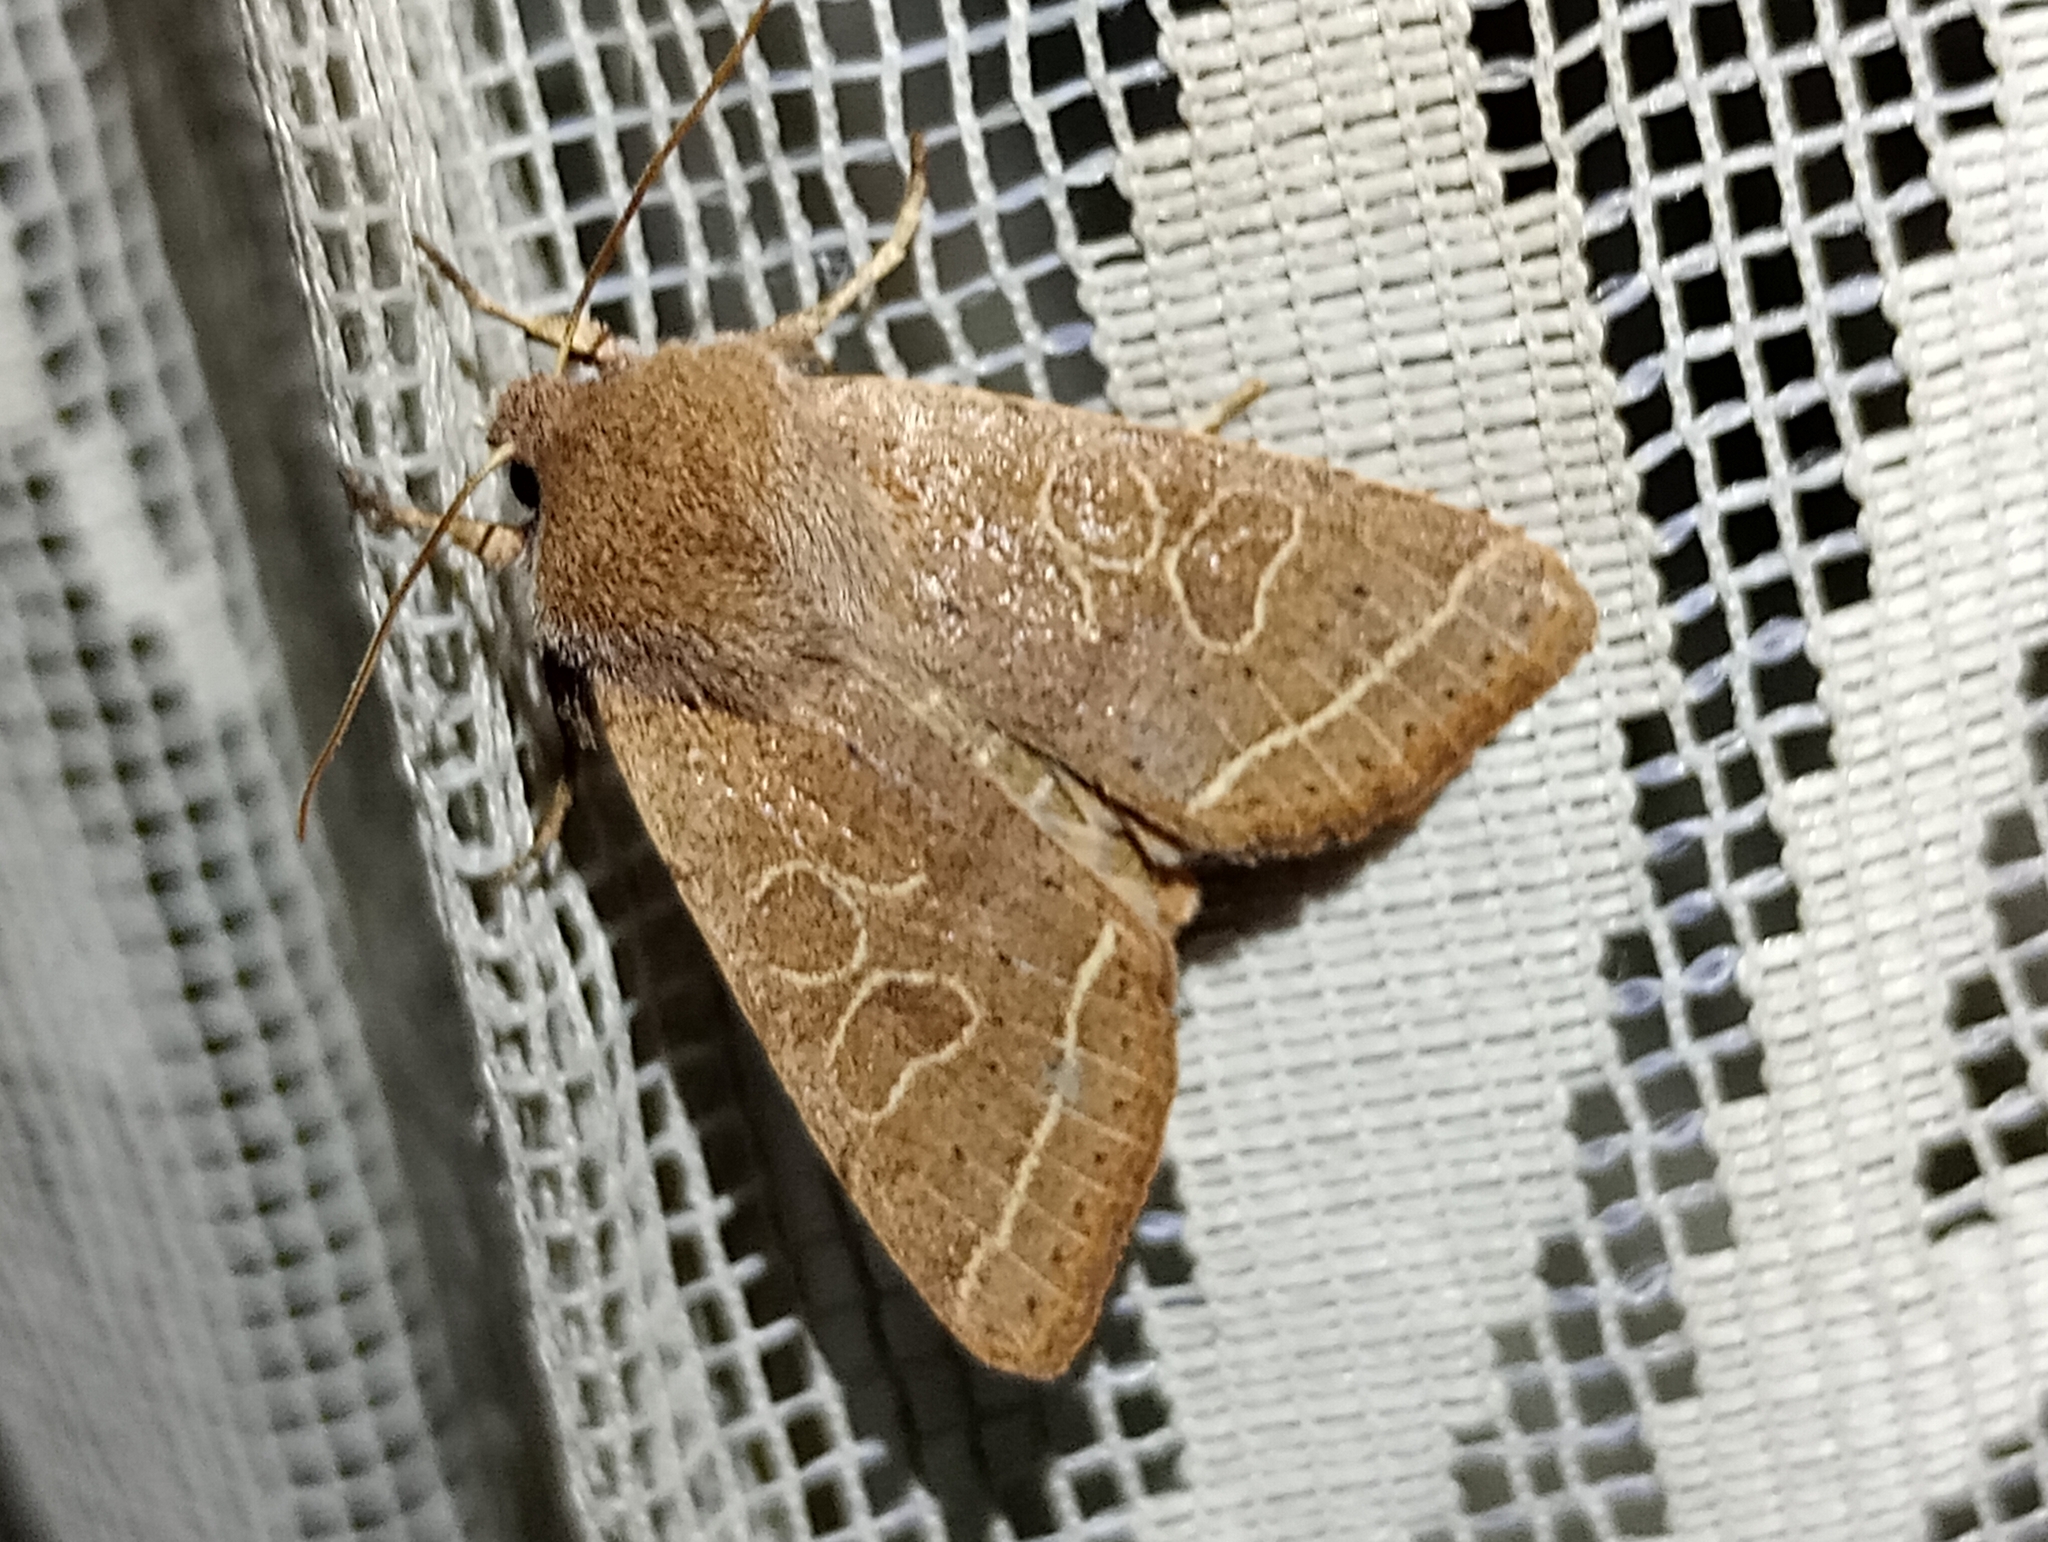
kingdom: Animalia
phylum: Arthropoda
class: Insecta
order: Lepidoptera
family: Noctuidae
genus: Orthosia
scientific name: Orthosia cerasi
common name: Common quaker
